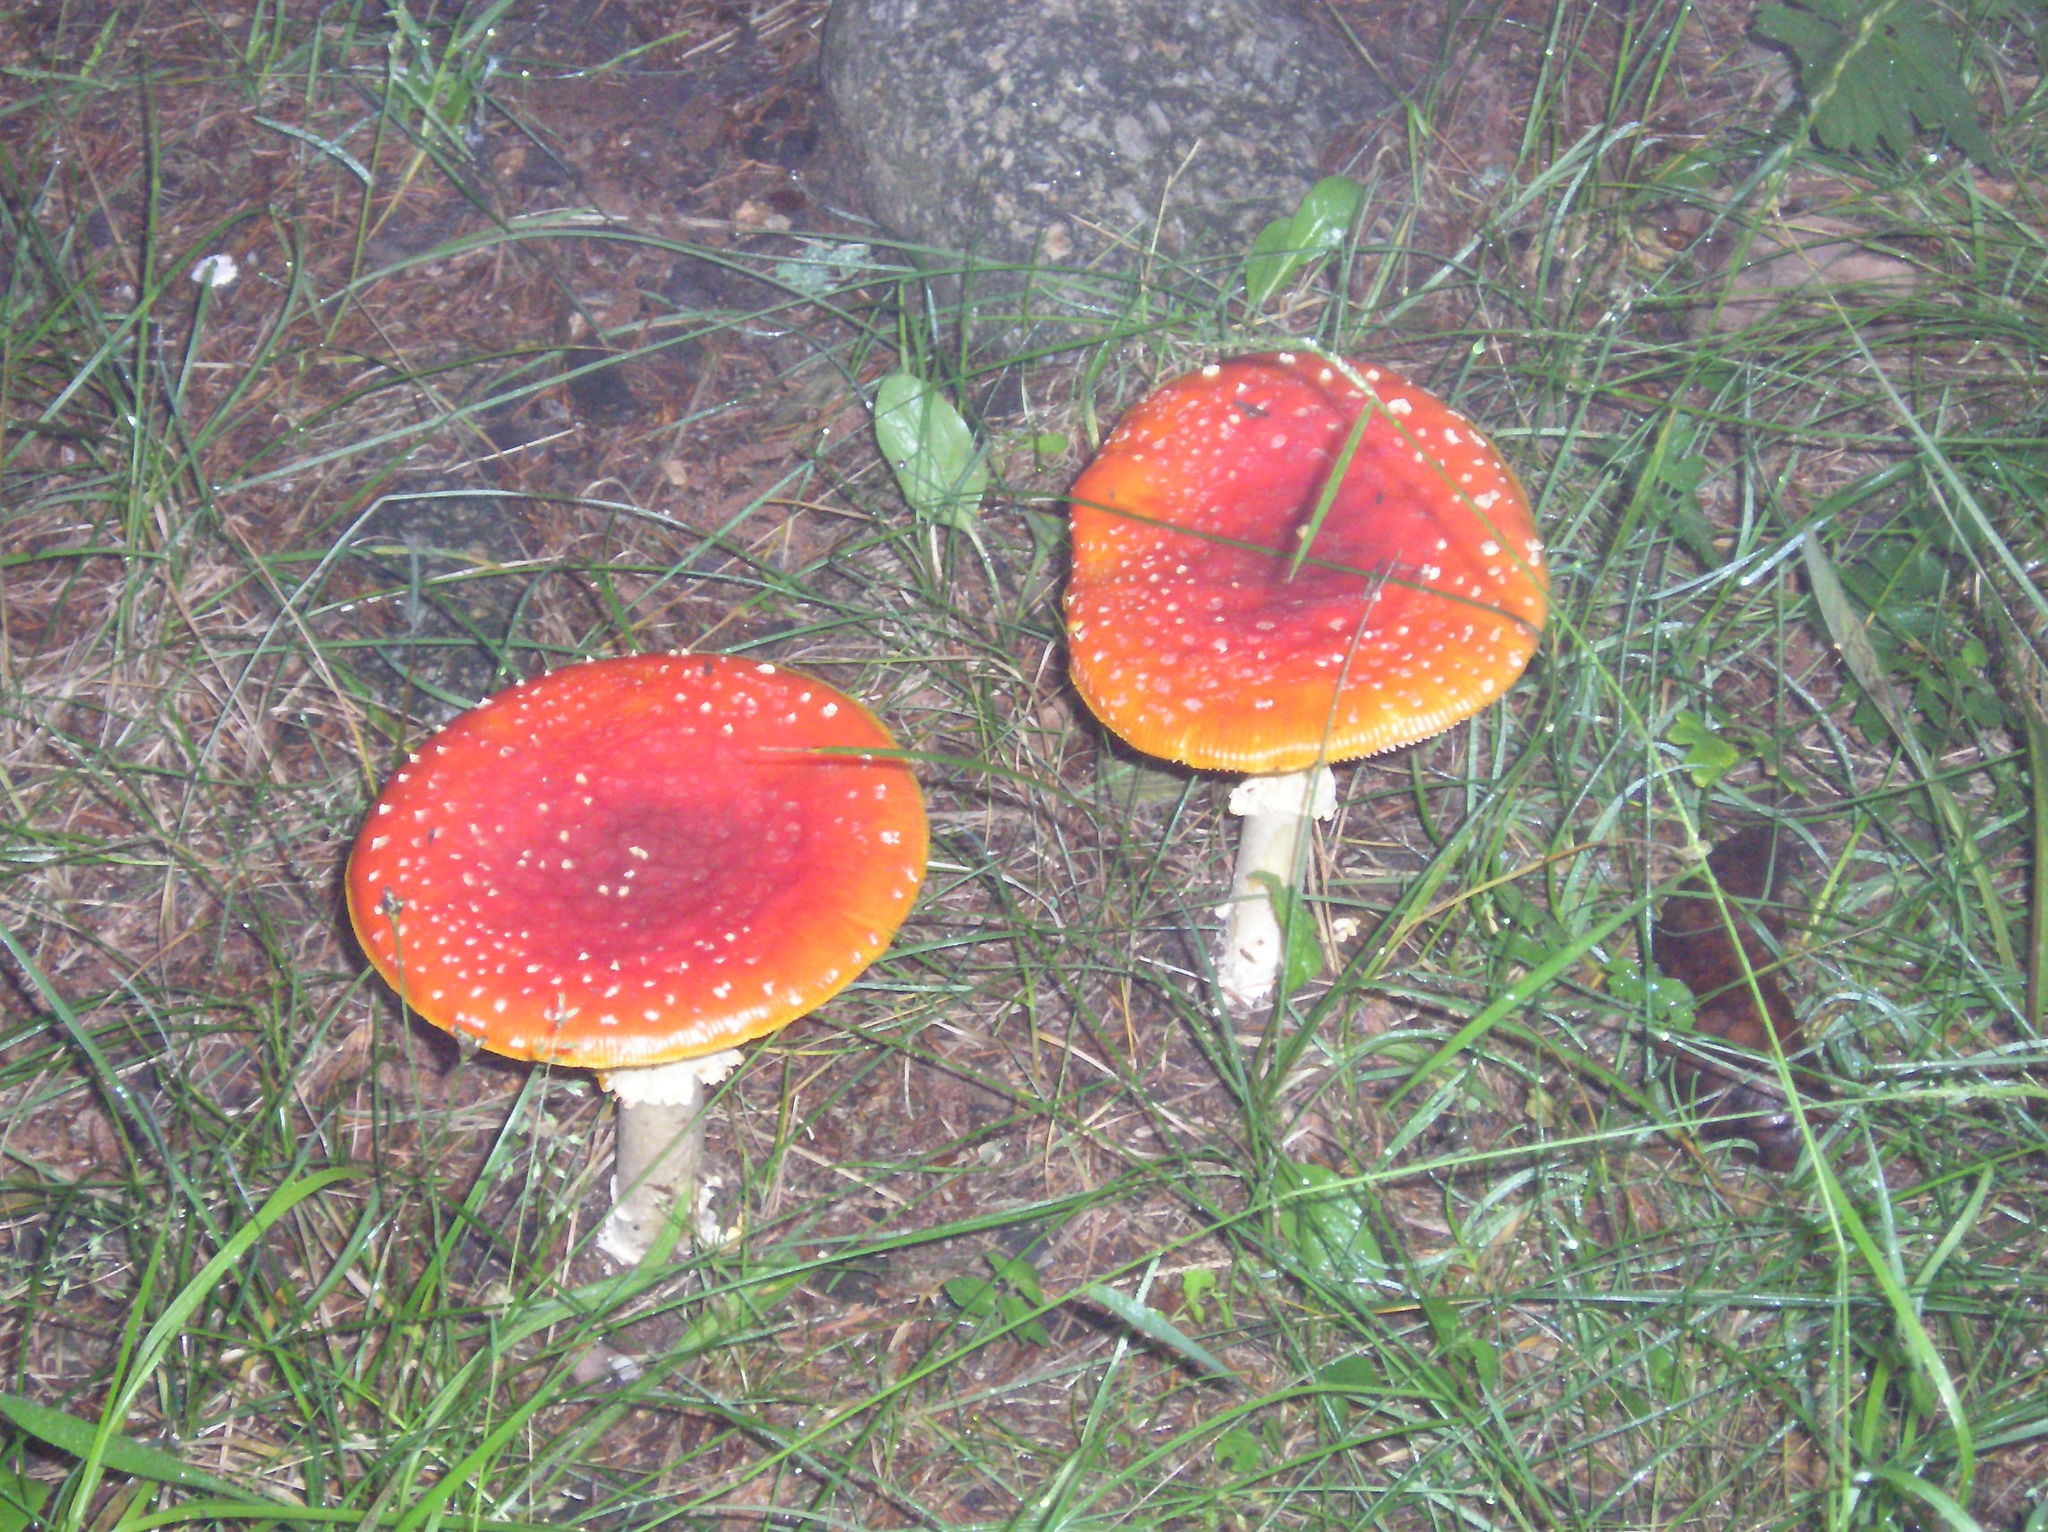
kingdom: Fungi
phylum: Basidiomycota
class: Agaricomycetes
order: Agaricales
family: Amanitaceae
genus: Amanita
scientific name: Amanita muscaria
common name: Fly agaric
